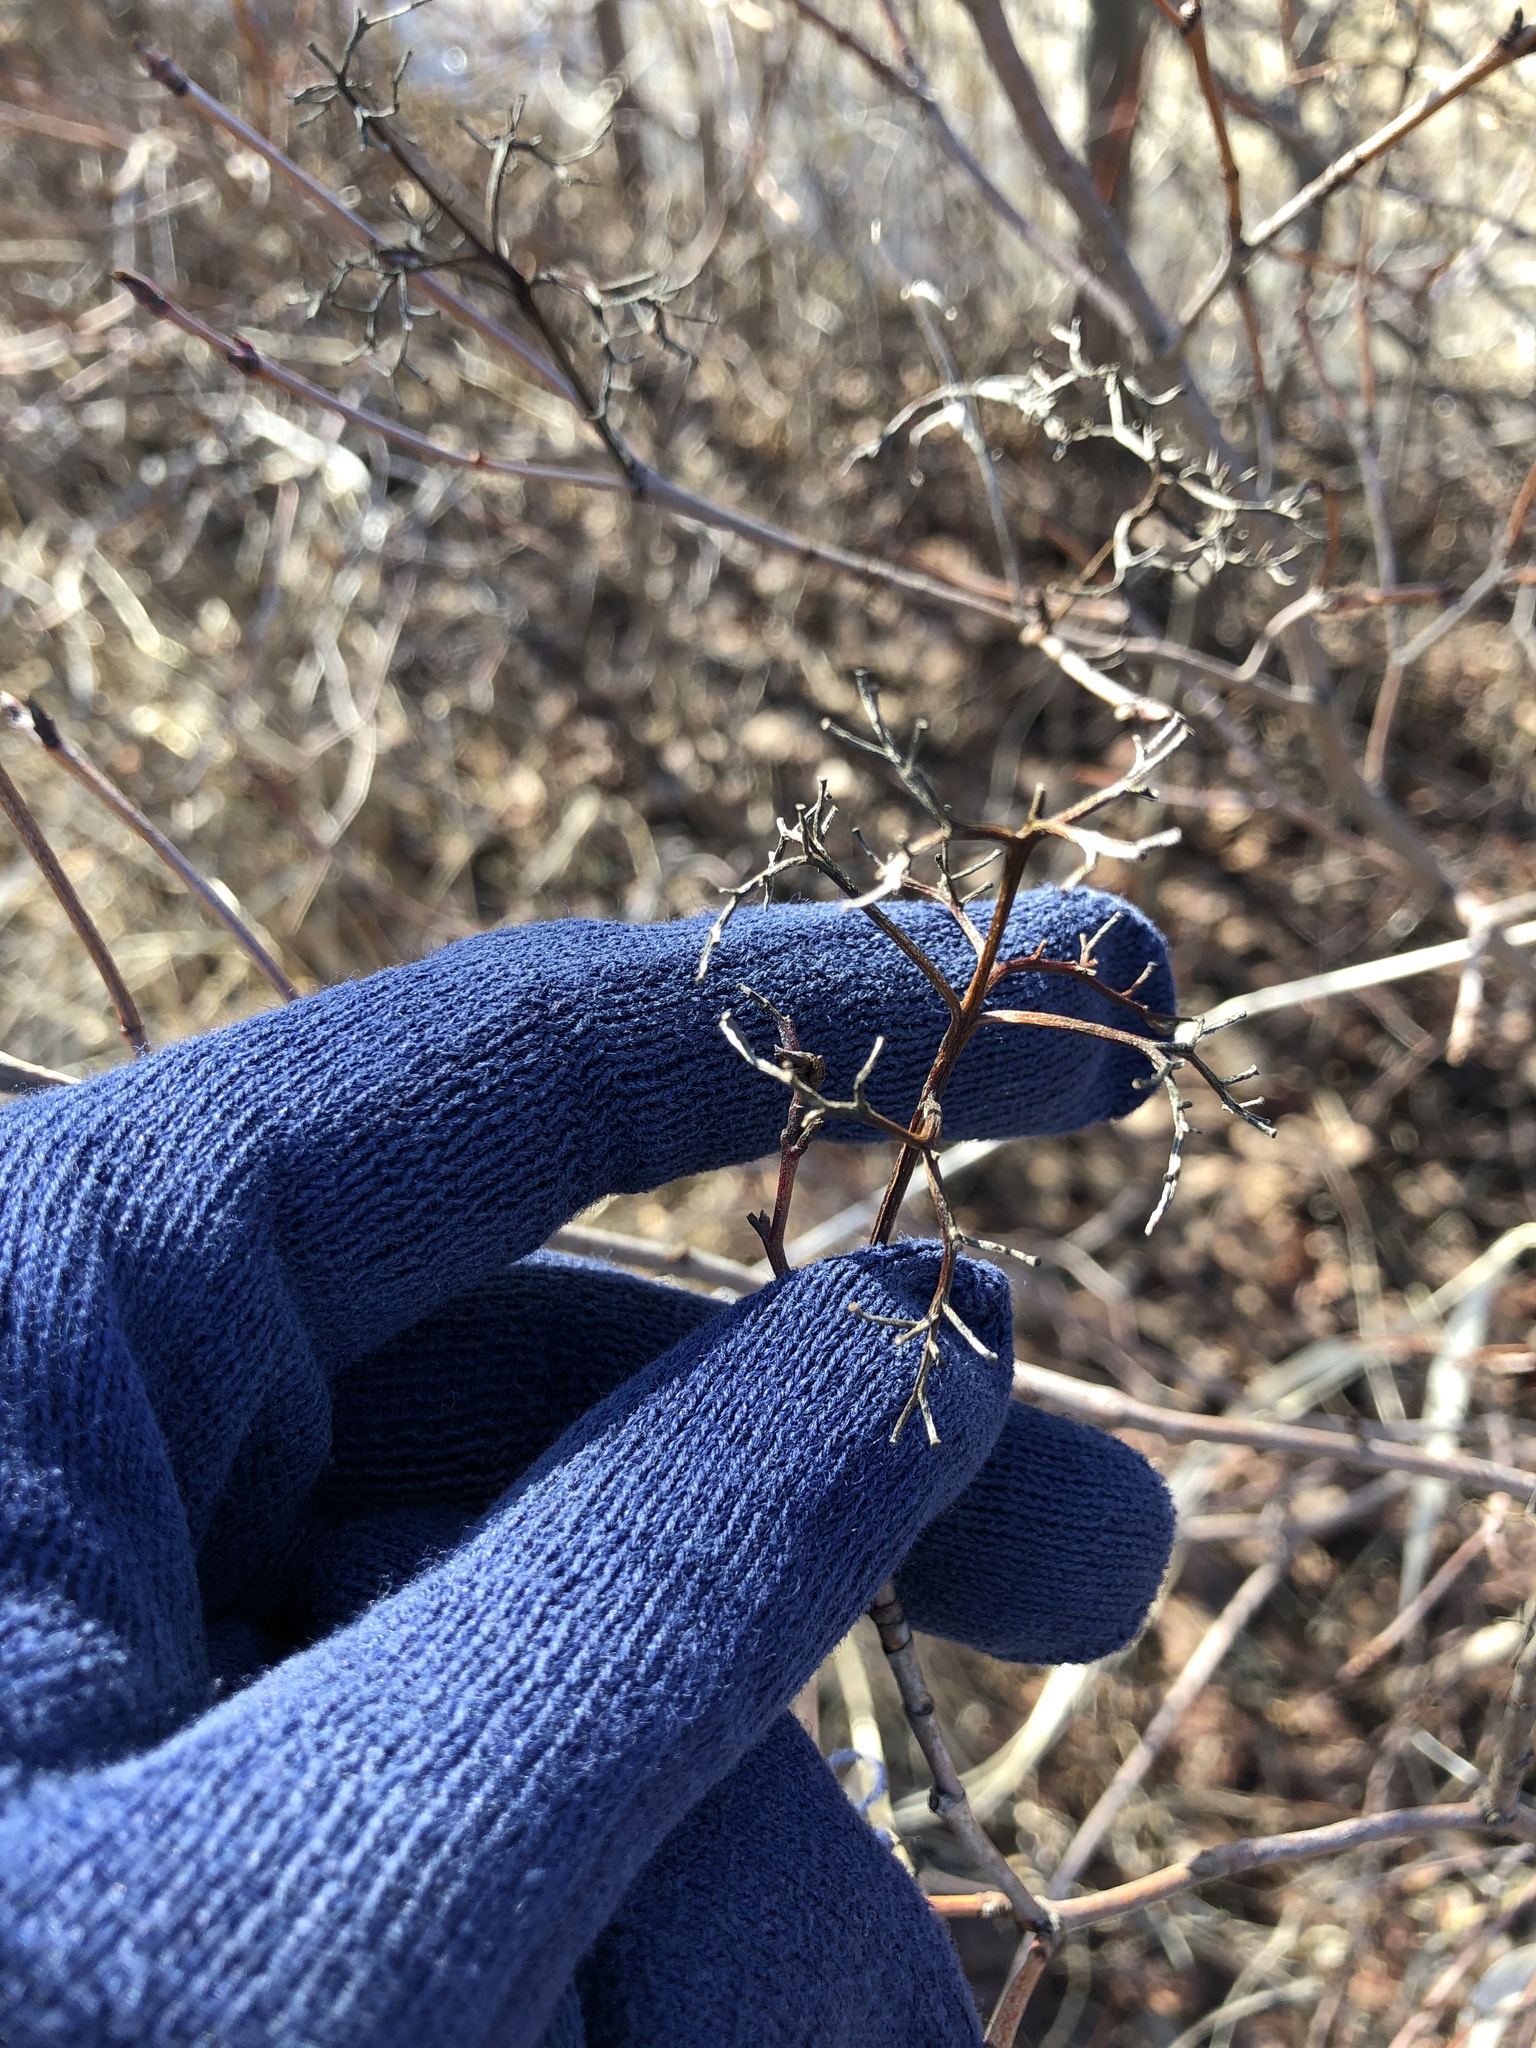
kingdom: Plantae
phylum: Tracheophyta
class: Magnoliopsida
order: Cornales
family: Cornaceae
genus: Cornus
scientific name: Cornus racemosa
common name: Panicled dogwood
